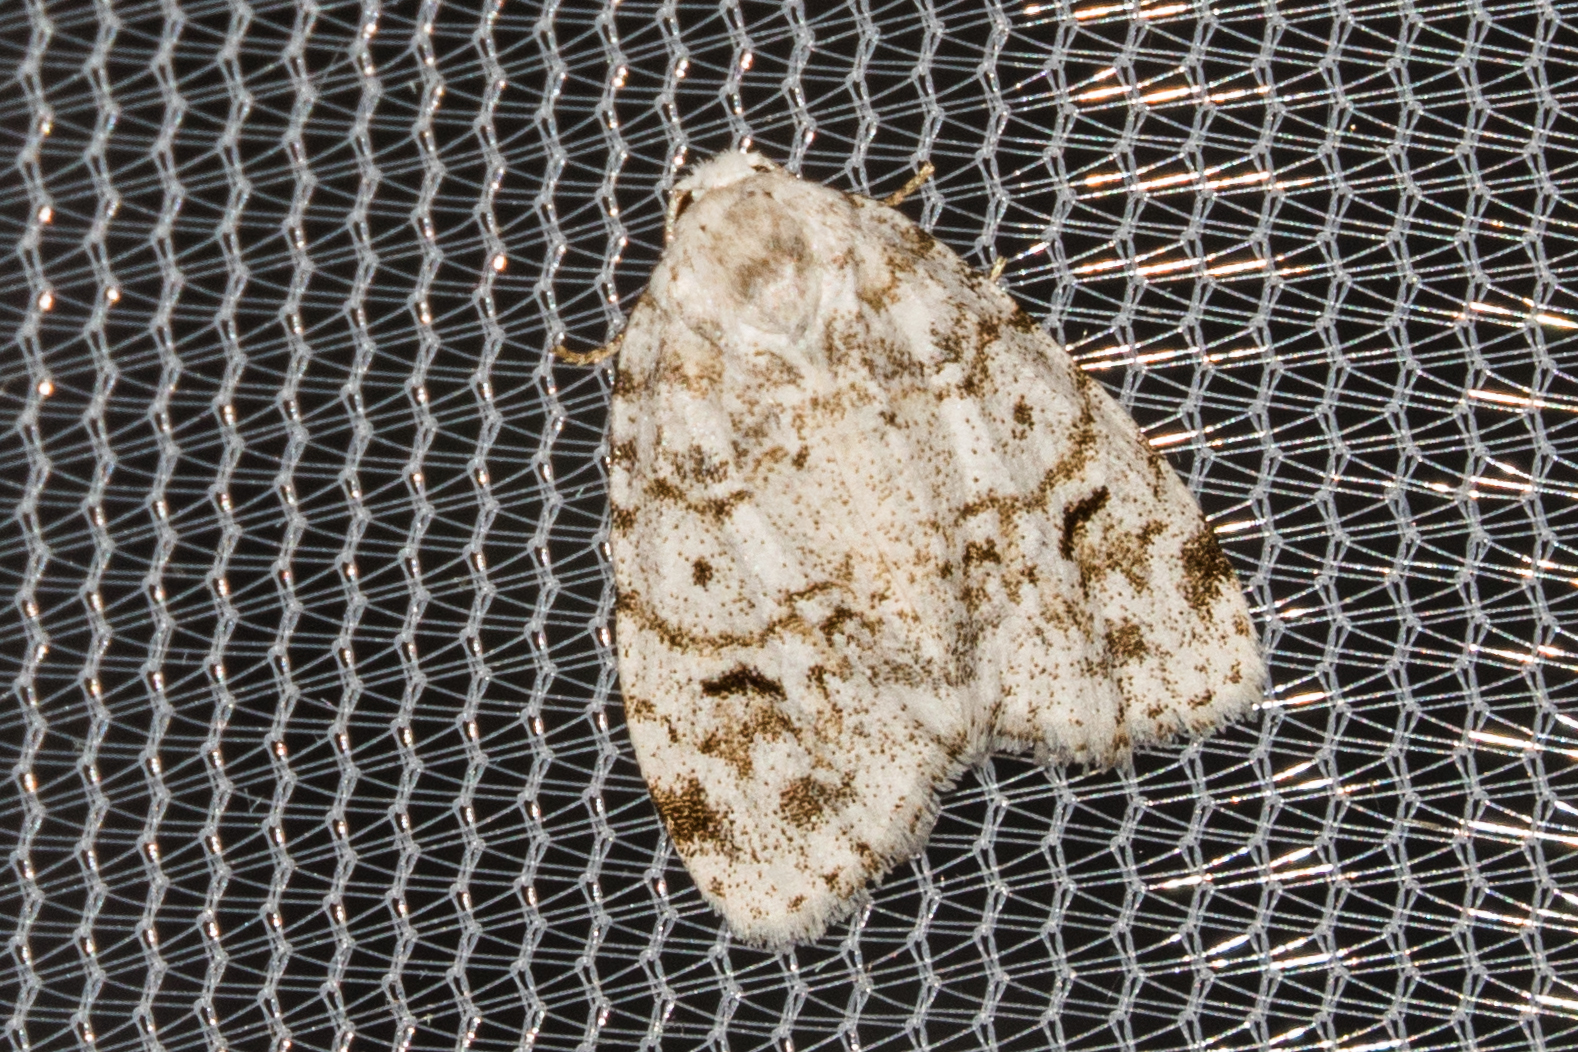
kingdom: Animalia
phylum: Arthropoda
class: Insecta
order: Lepidoptera
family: Erebidae
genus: Clemensia
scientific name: Clemensia albata
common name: Little white lichen moth
